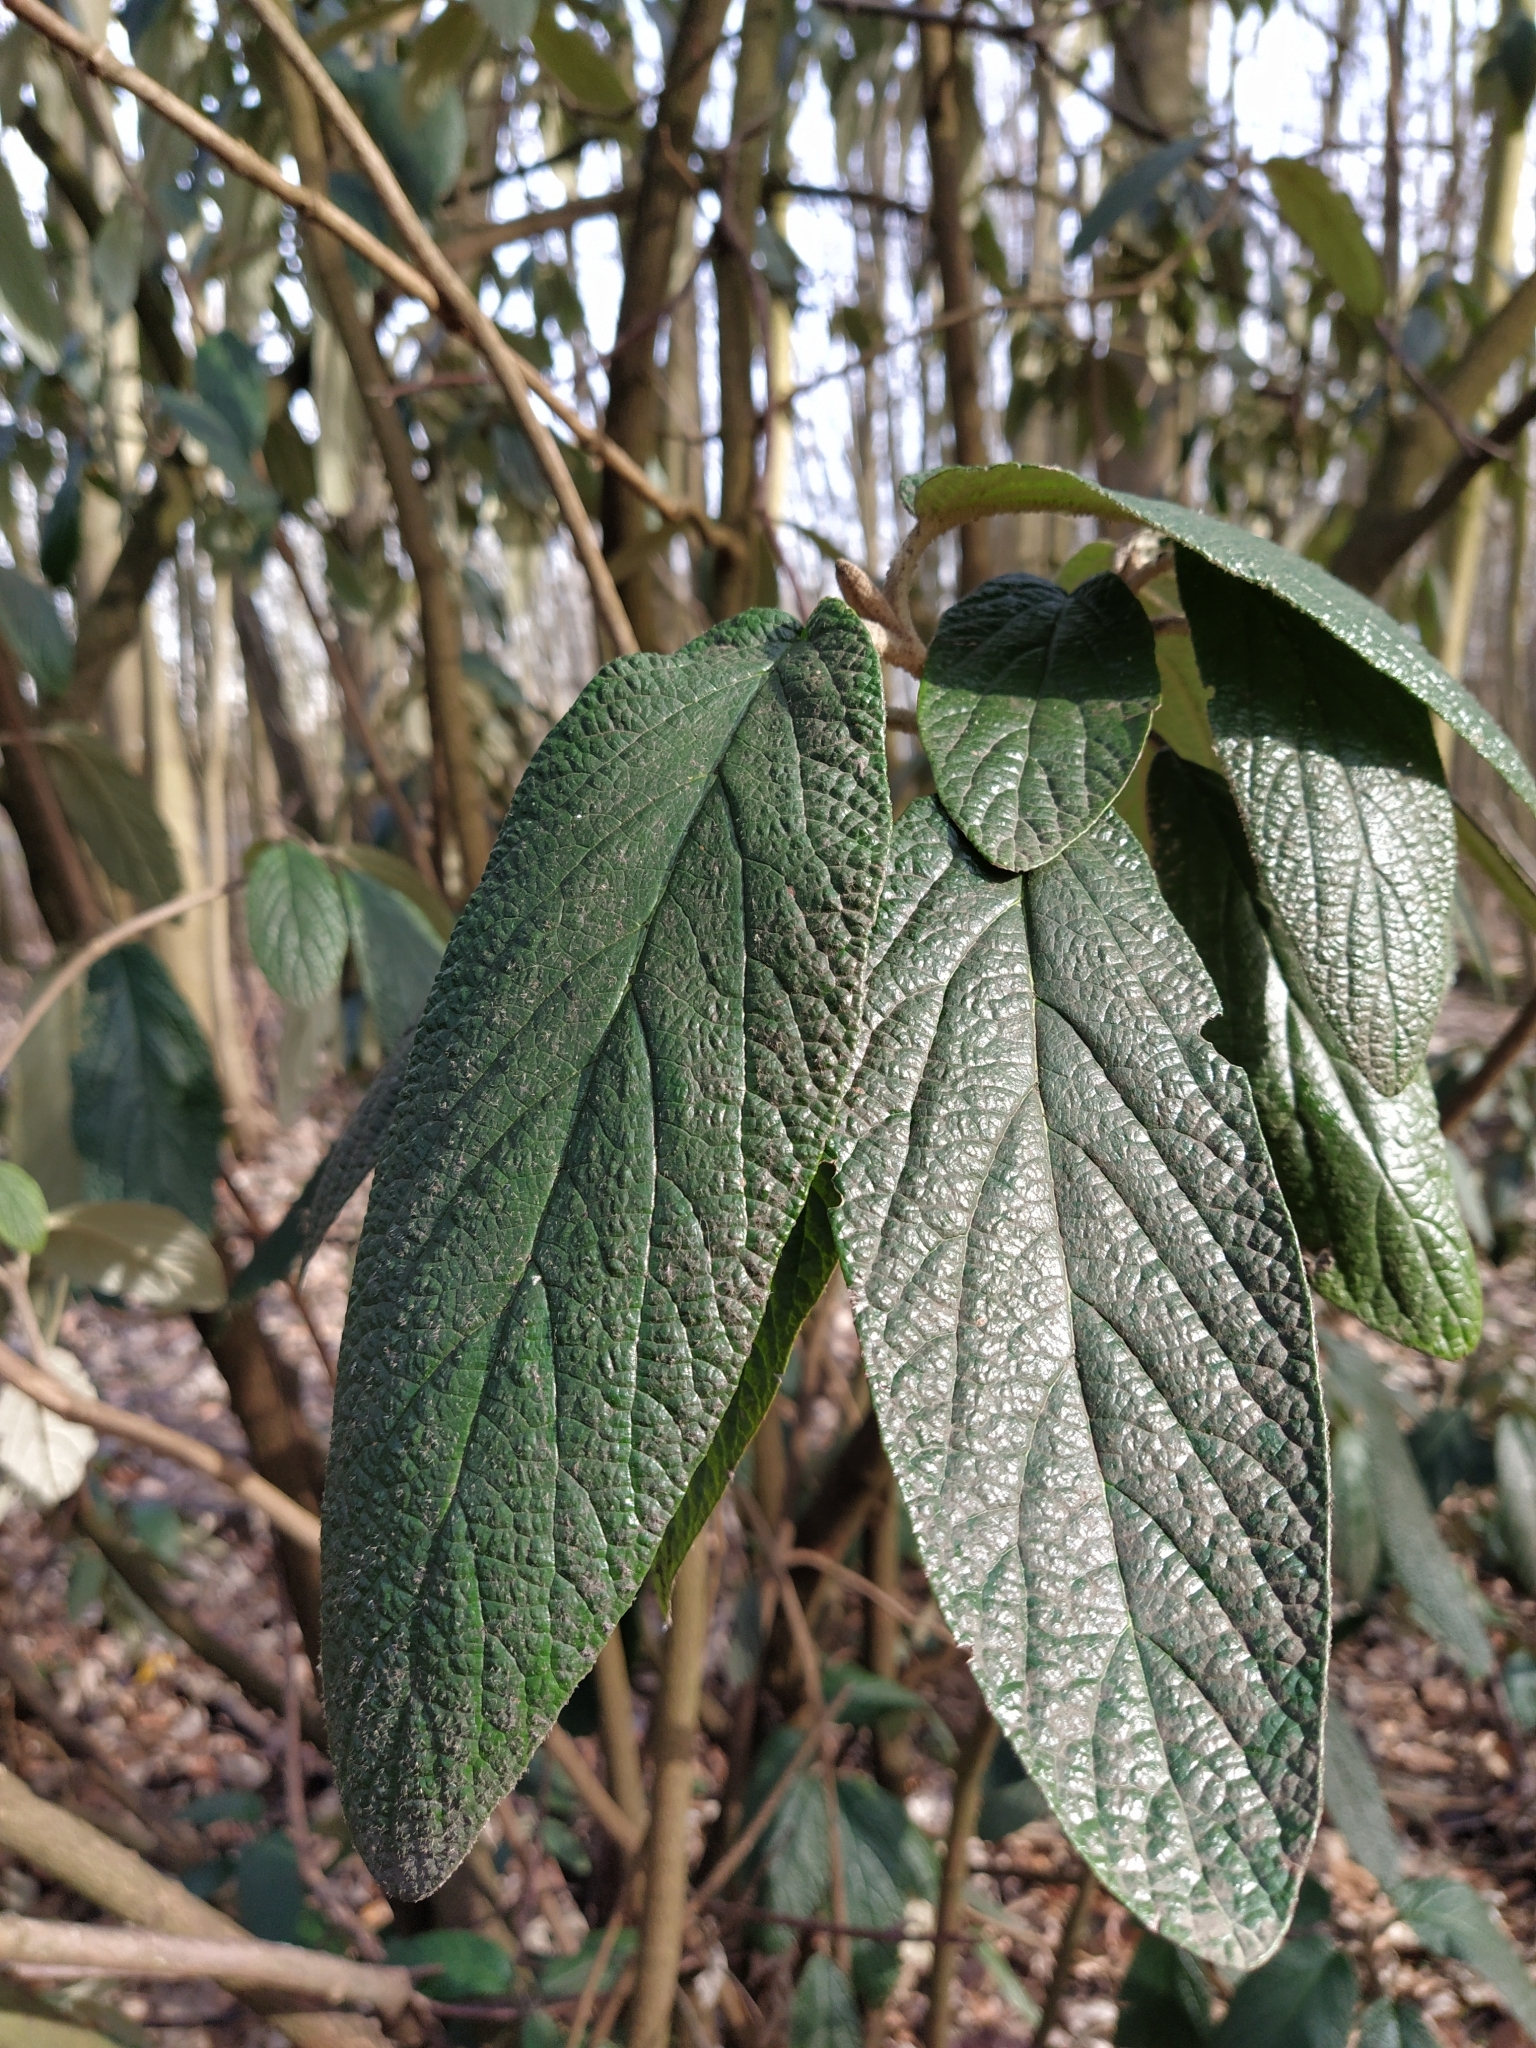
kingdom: Plantae
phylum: Tracheophyta
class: Magnoliopsida
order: Dipsacales
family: Viburnaceae
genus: Viburnum
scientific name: Viburnum rhytidophyllum
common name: Wrinkled viburnum
